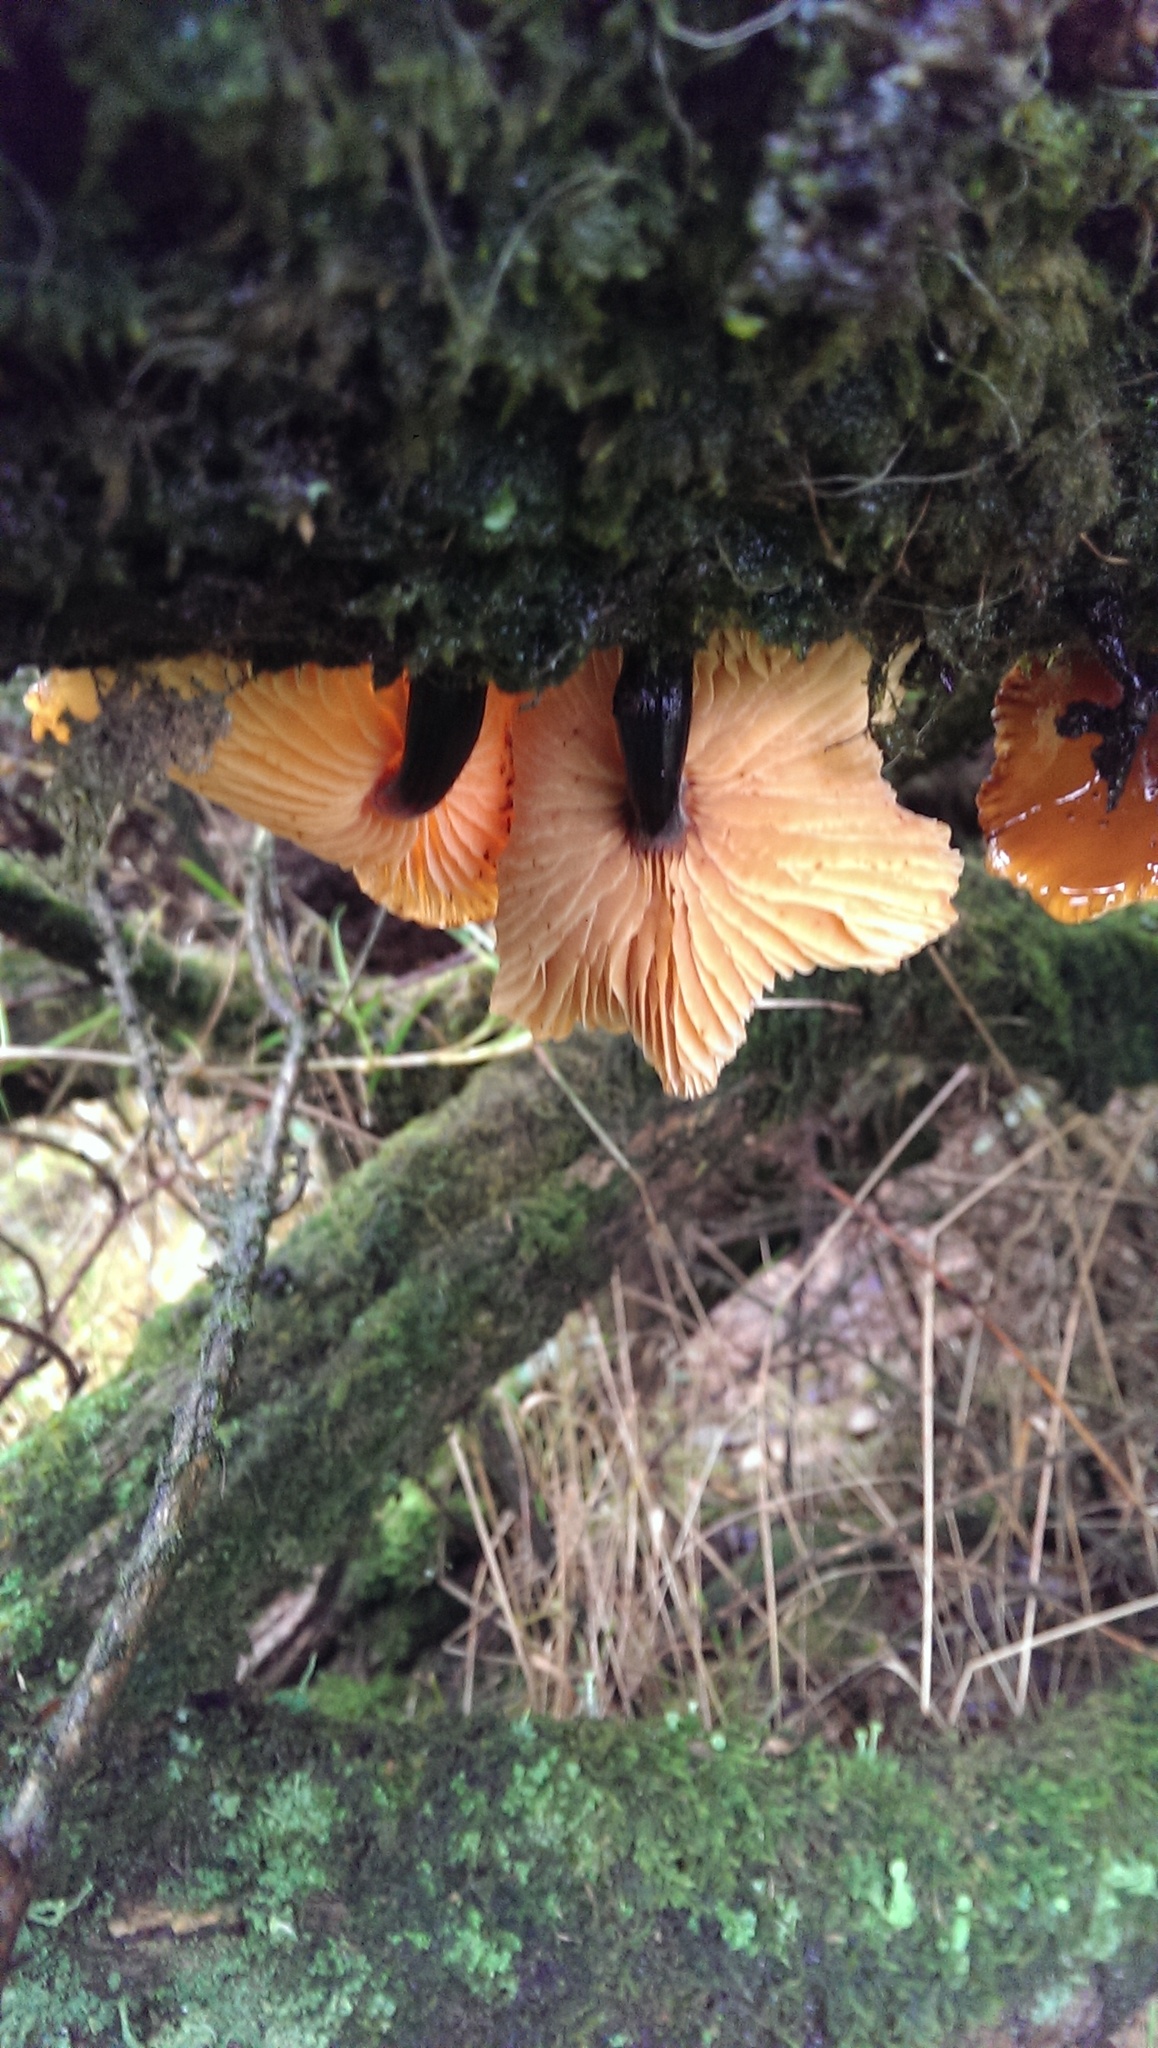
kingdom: Fungi
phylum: Basidiomycota
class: Agaricomycetes
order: Agaricales
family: Physalacriaceae
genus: Flammulina
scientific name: Flammulina
